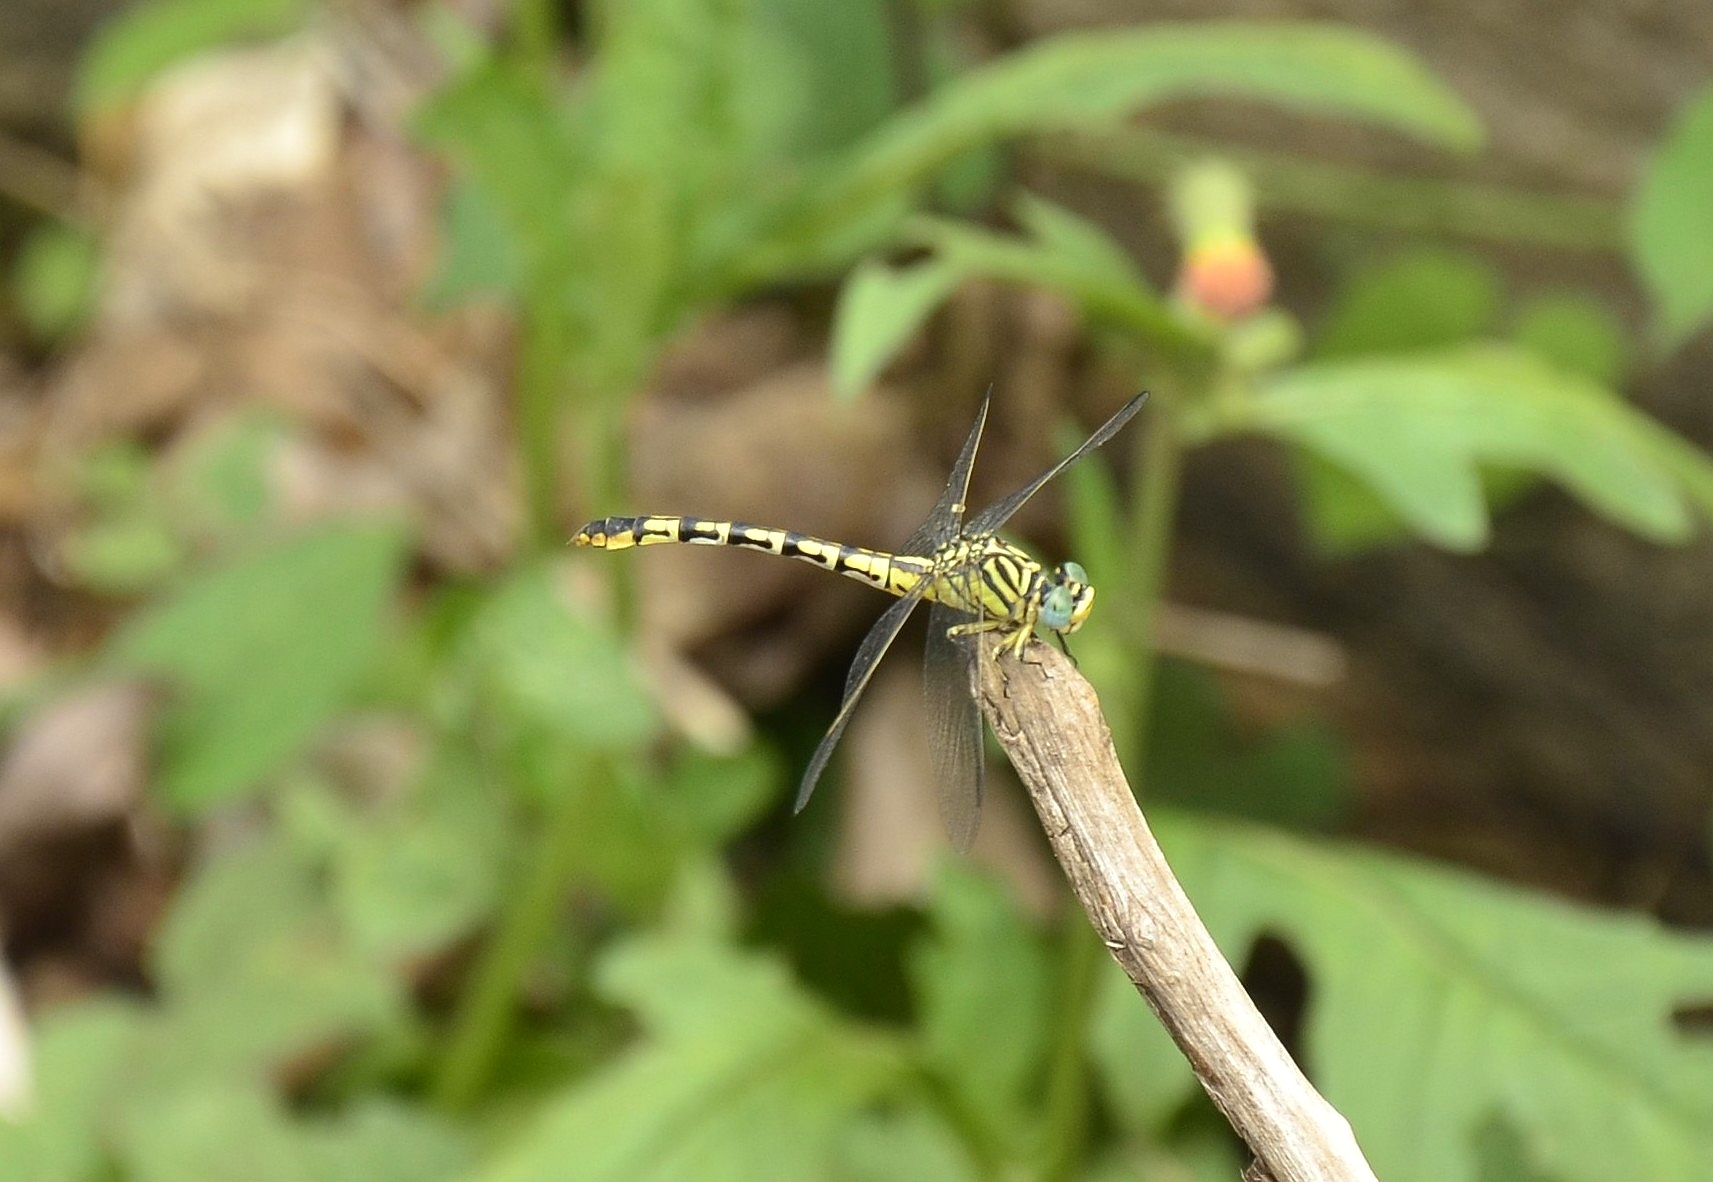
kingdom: Animalia
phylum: Arthropoda
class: Insecta
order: Odonata
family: Gomphidae
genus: Paragomphus
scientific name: Paragomphus lineatus
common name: Lined hooktail
